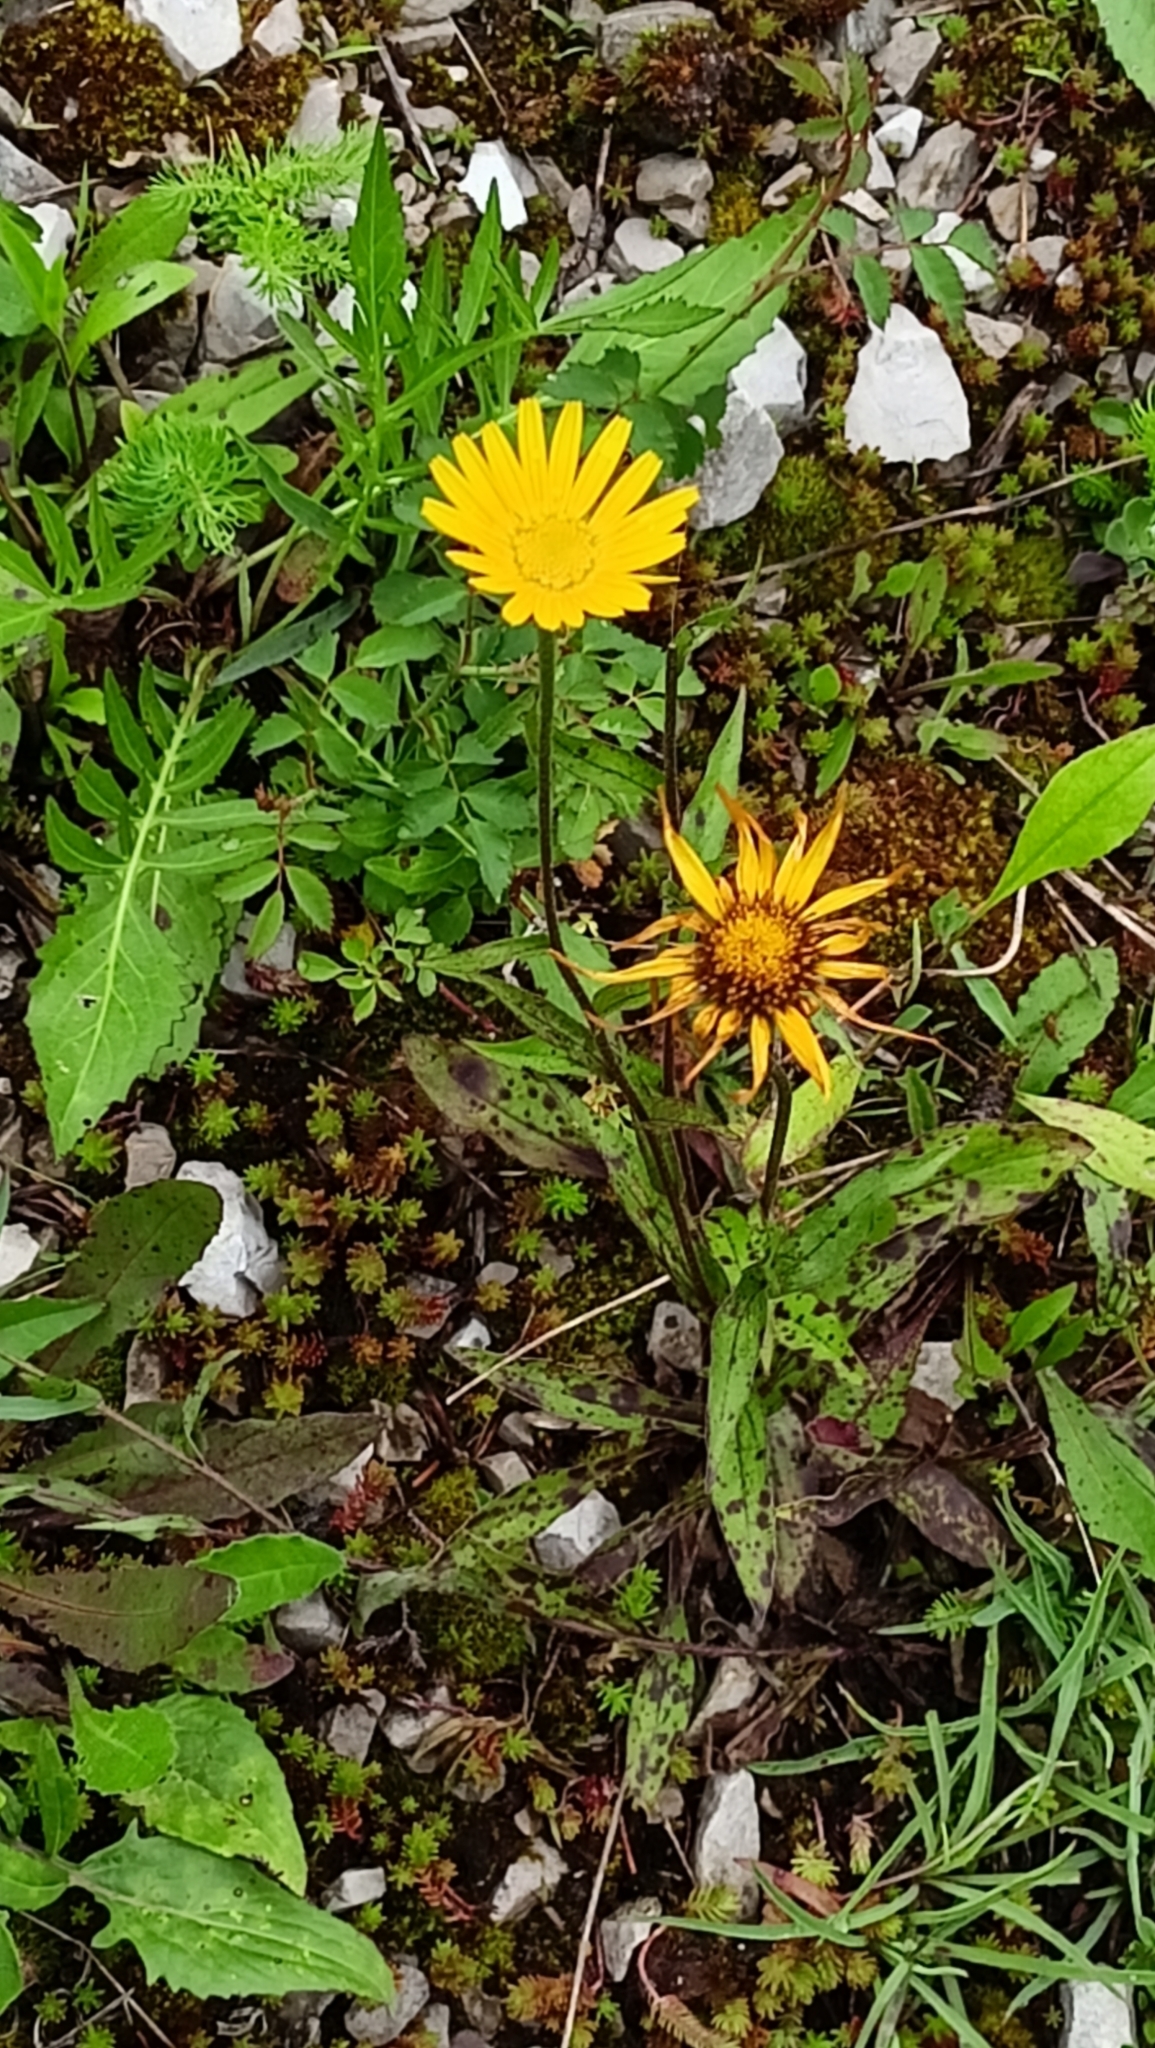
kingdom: Plantae
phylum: Tracheophyta
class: Magnoliopsida
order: Asterales
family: Asteraceae
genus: Buphthalmum
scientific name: Buphthalmum salicifolium
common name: Willow-leaved yellow-oxeye
